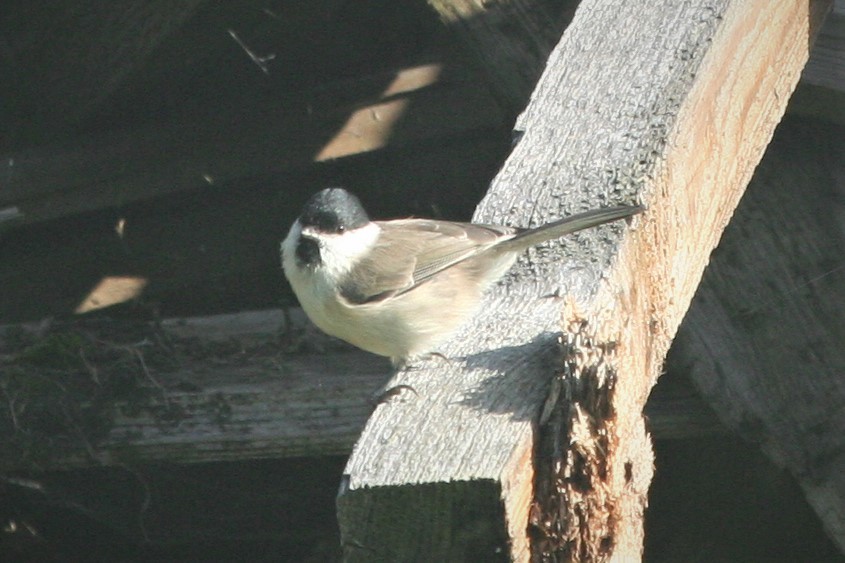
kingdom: Animalia
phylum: Chordata
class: Aves
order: Passeriformes
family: Paridae
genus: Poecile
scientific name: Poecile palustris
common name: Marsh tit
